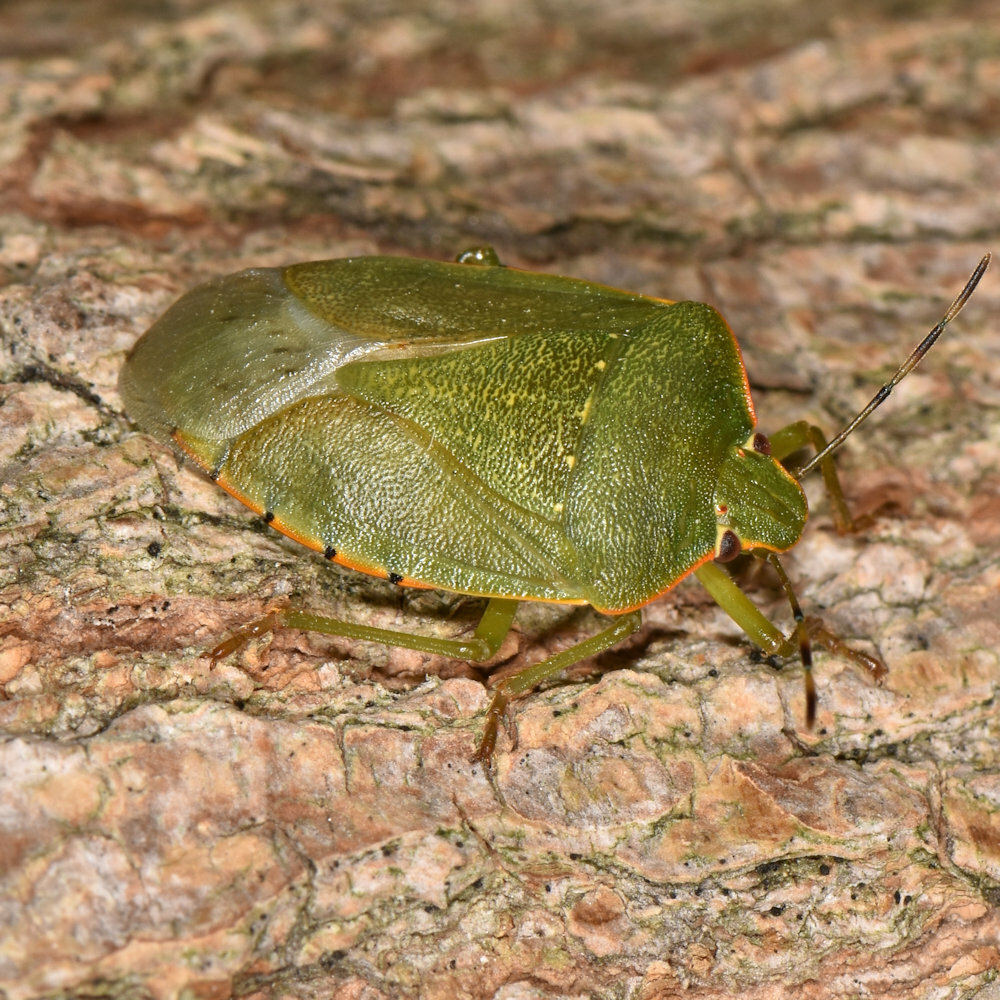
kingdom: Animalia
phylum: Arthropoda
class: Insecta
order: Hemiptera
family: Pentatomidae
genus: Chinavia
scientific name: Chinavia hilaris
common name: Green stink bug
